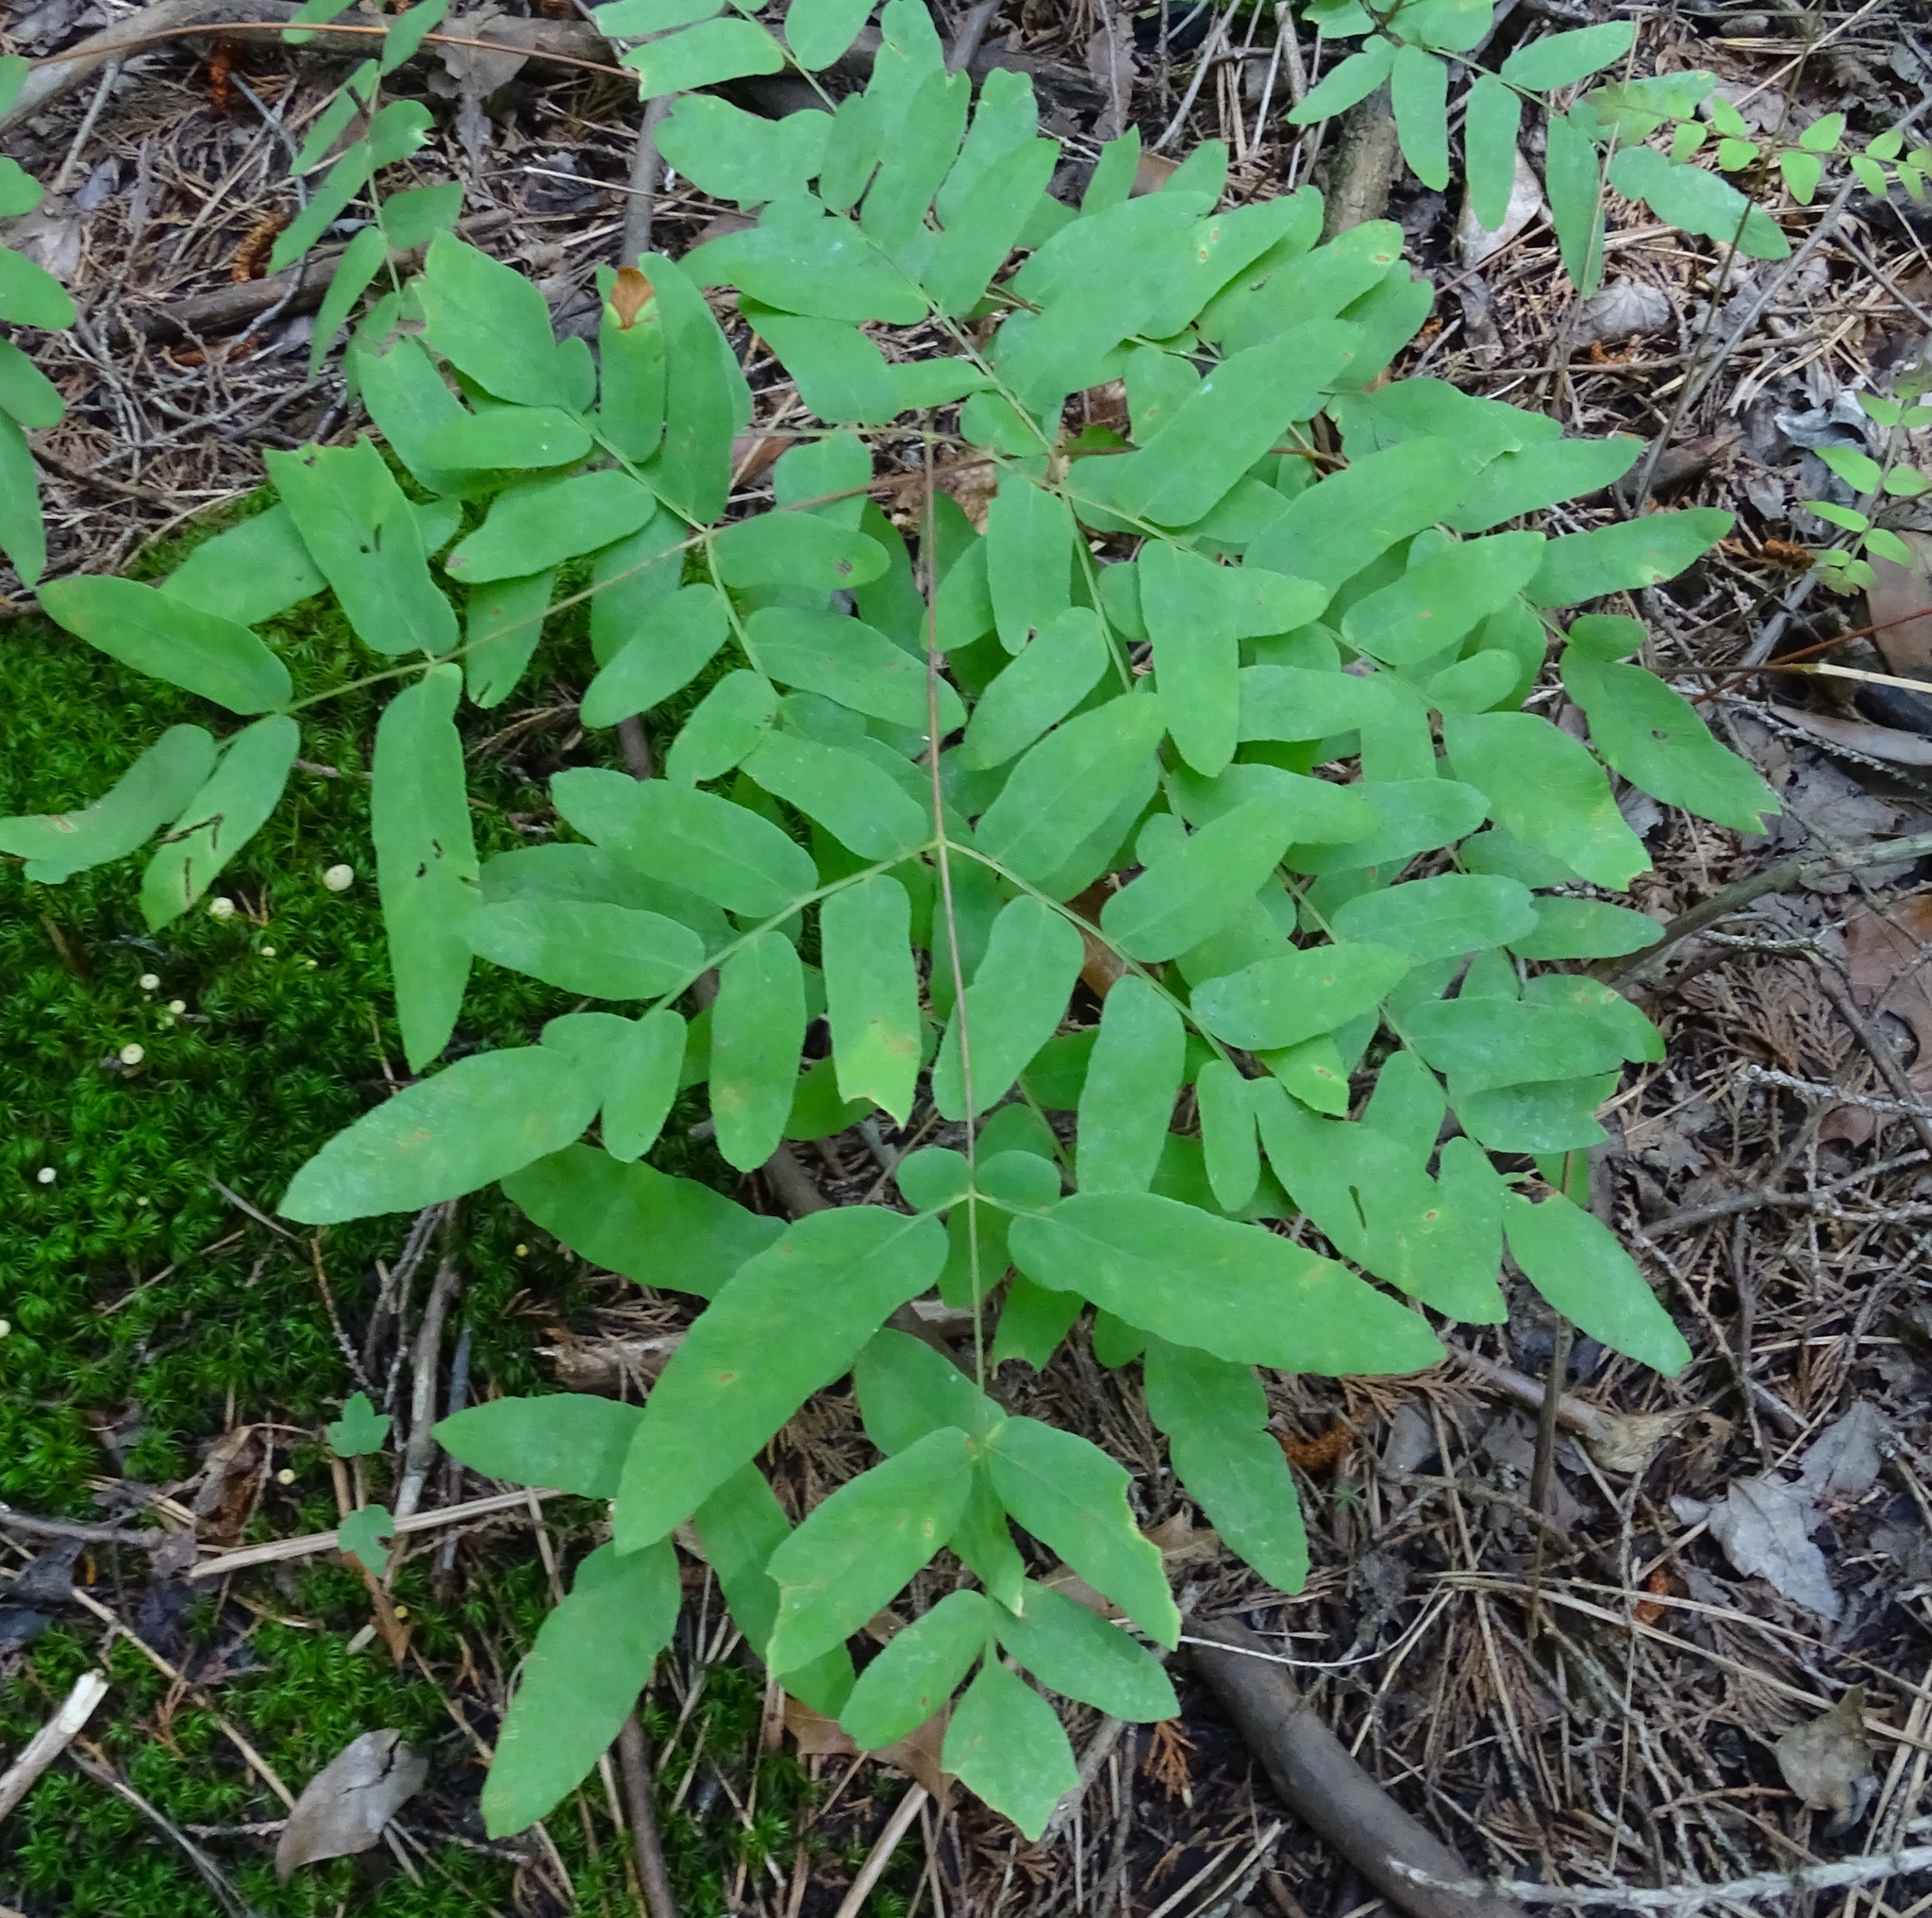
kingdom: Plantae
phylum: Tracheophyta
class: Polypodiopsida
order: Osmundales
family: Osmundaceae
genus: Osmunda
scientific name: Osmunda spectabilis
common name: American royal fern
